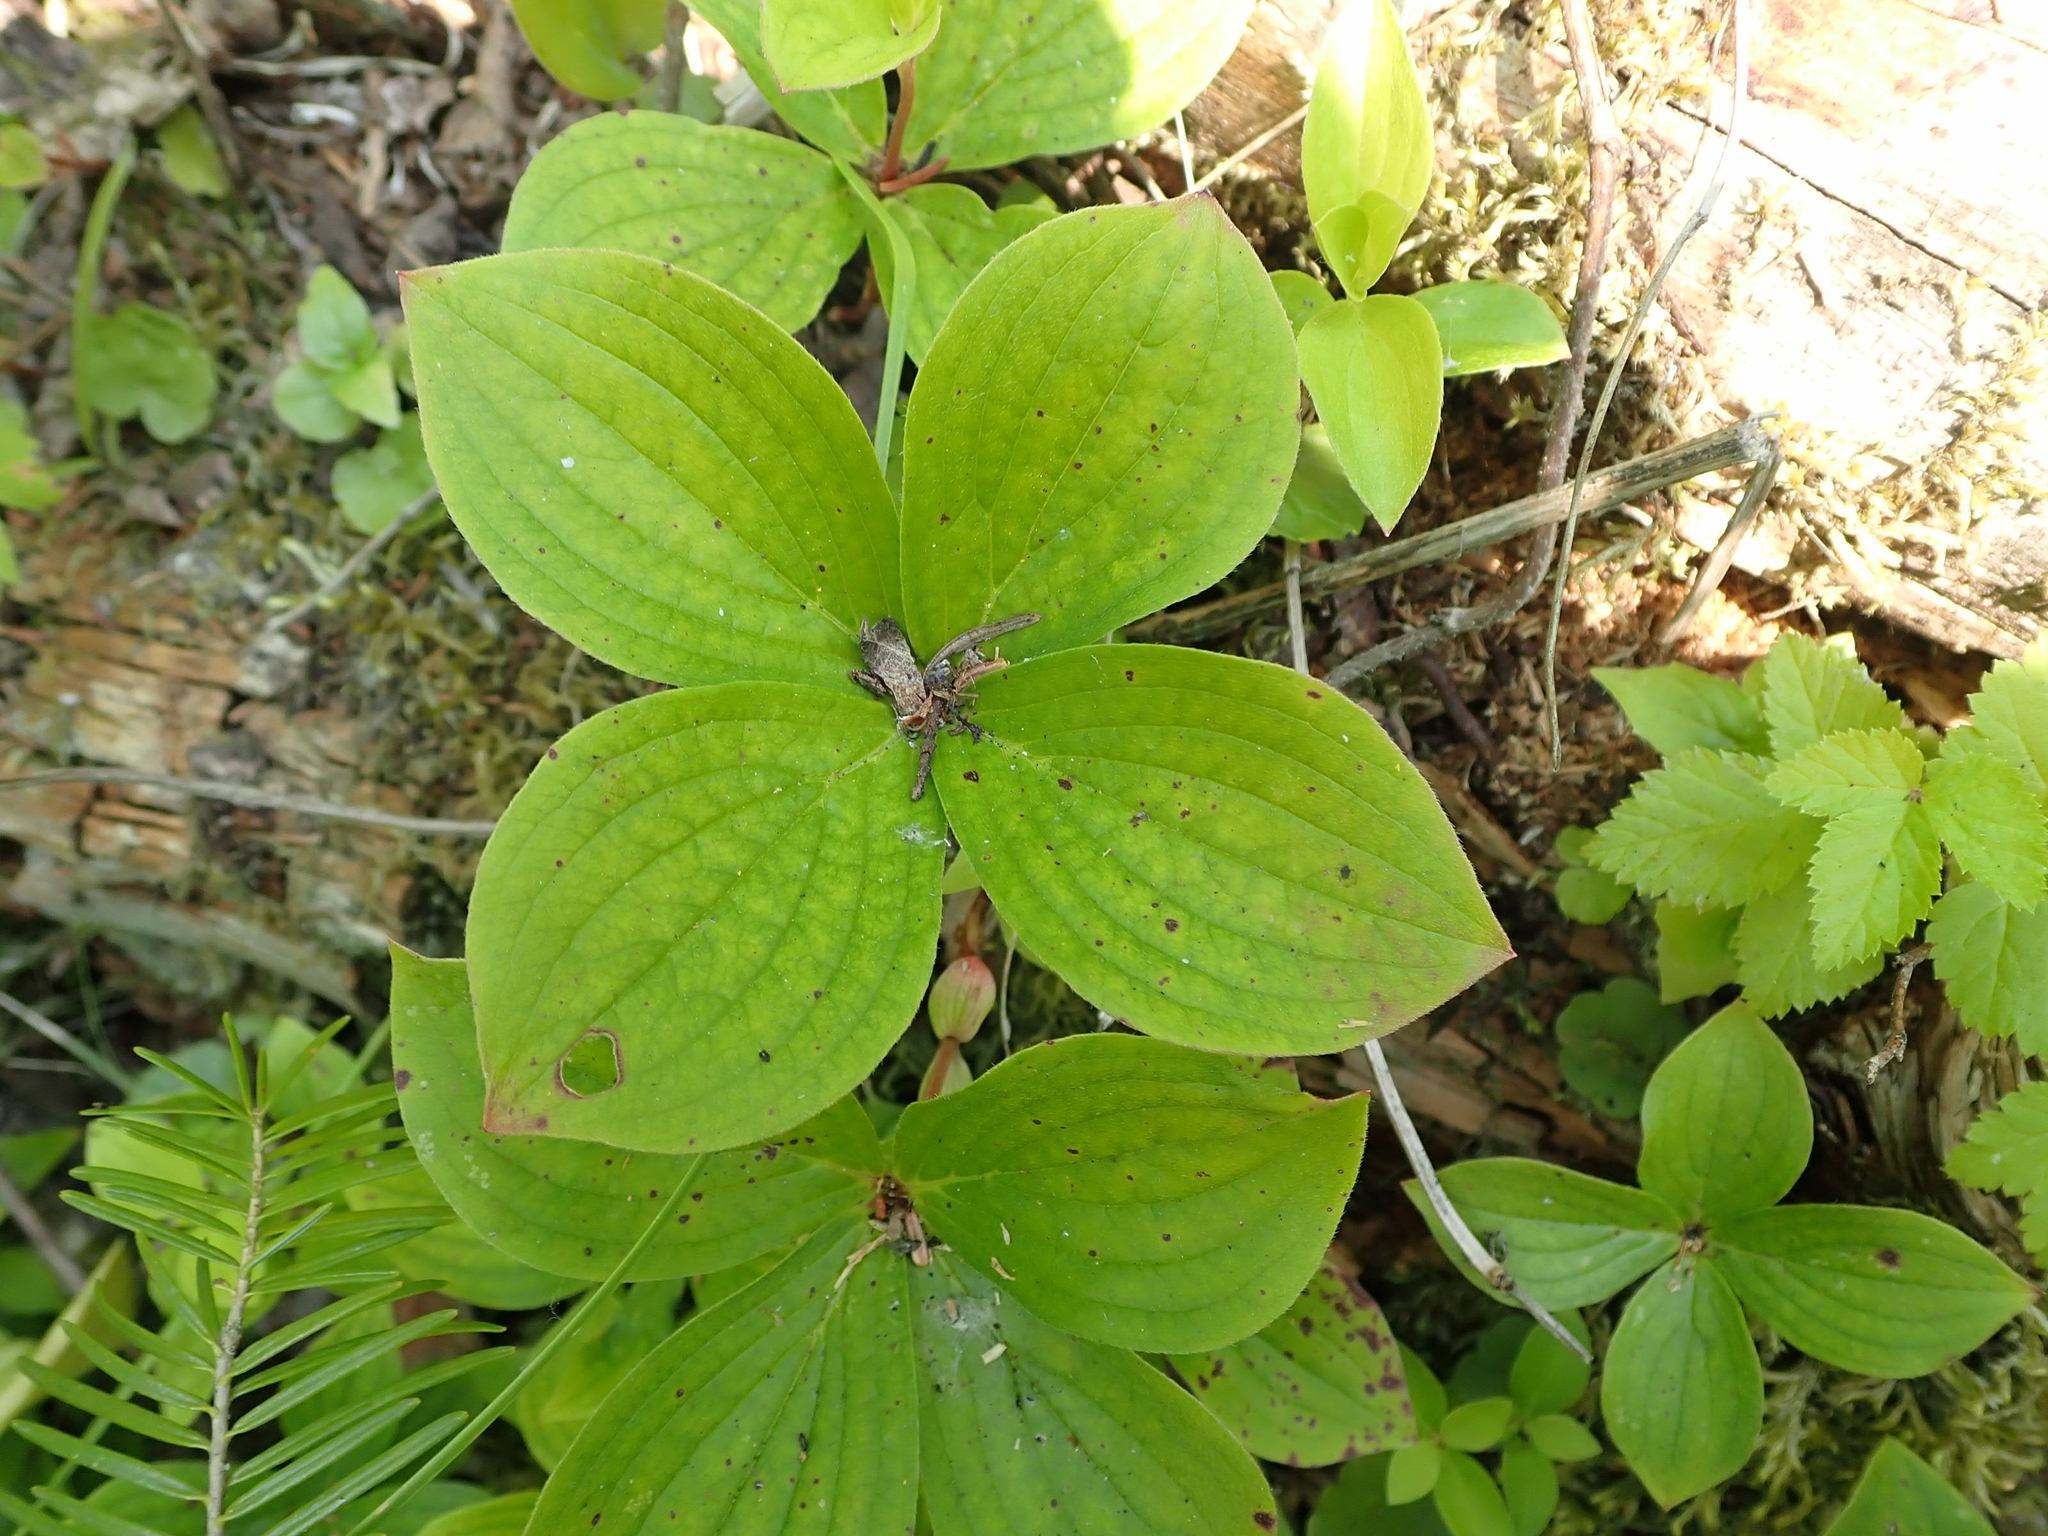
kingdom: Plantae
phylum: Tracheophyta
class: Magnoliopsida
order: Cornales
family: Cornaceae
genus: Cornus
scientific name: Cornus canadensis
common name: Creeping dogwood
